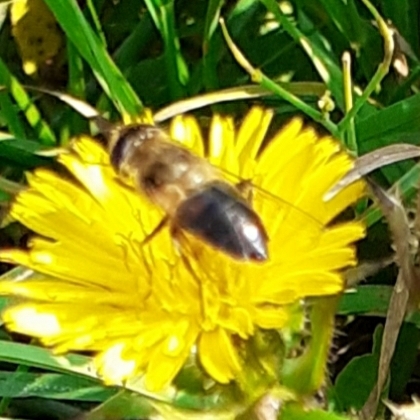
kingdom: Animalia
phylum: Arthropoda
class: Insecta
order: Diptera
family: Syrphidae
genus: Eristalis
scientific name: Eristalis tenax
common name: Drone fly
